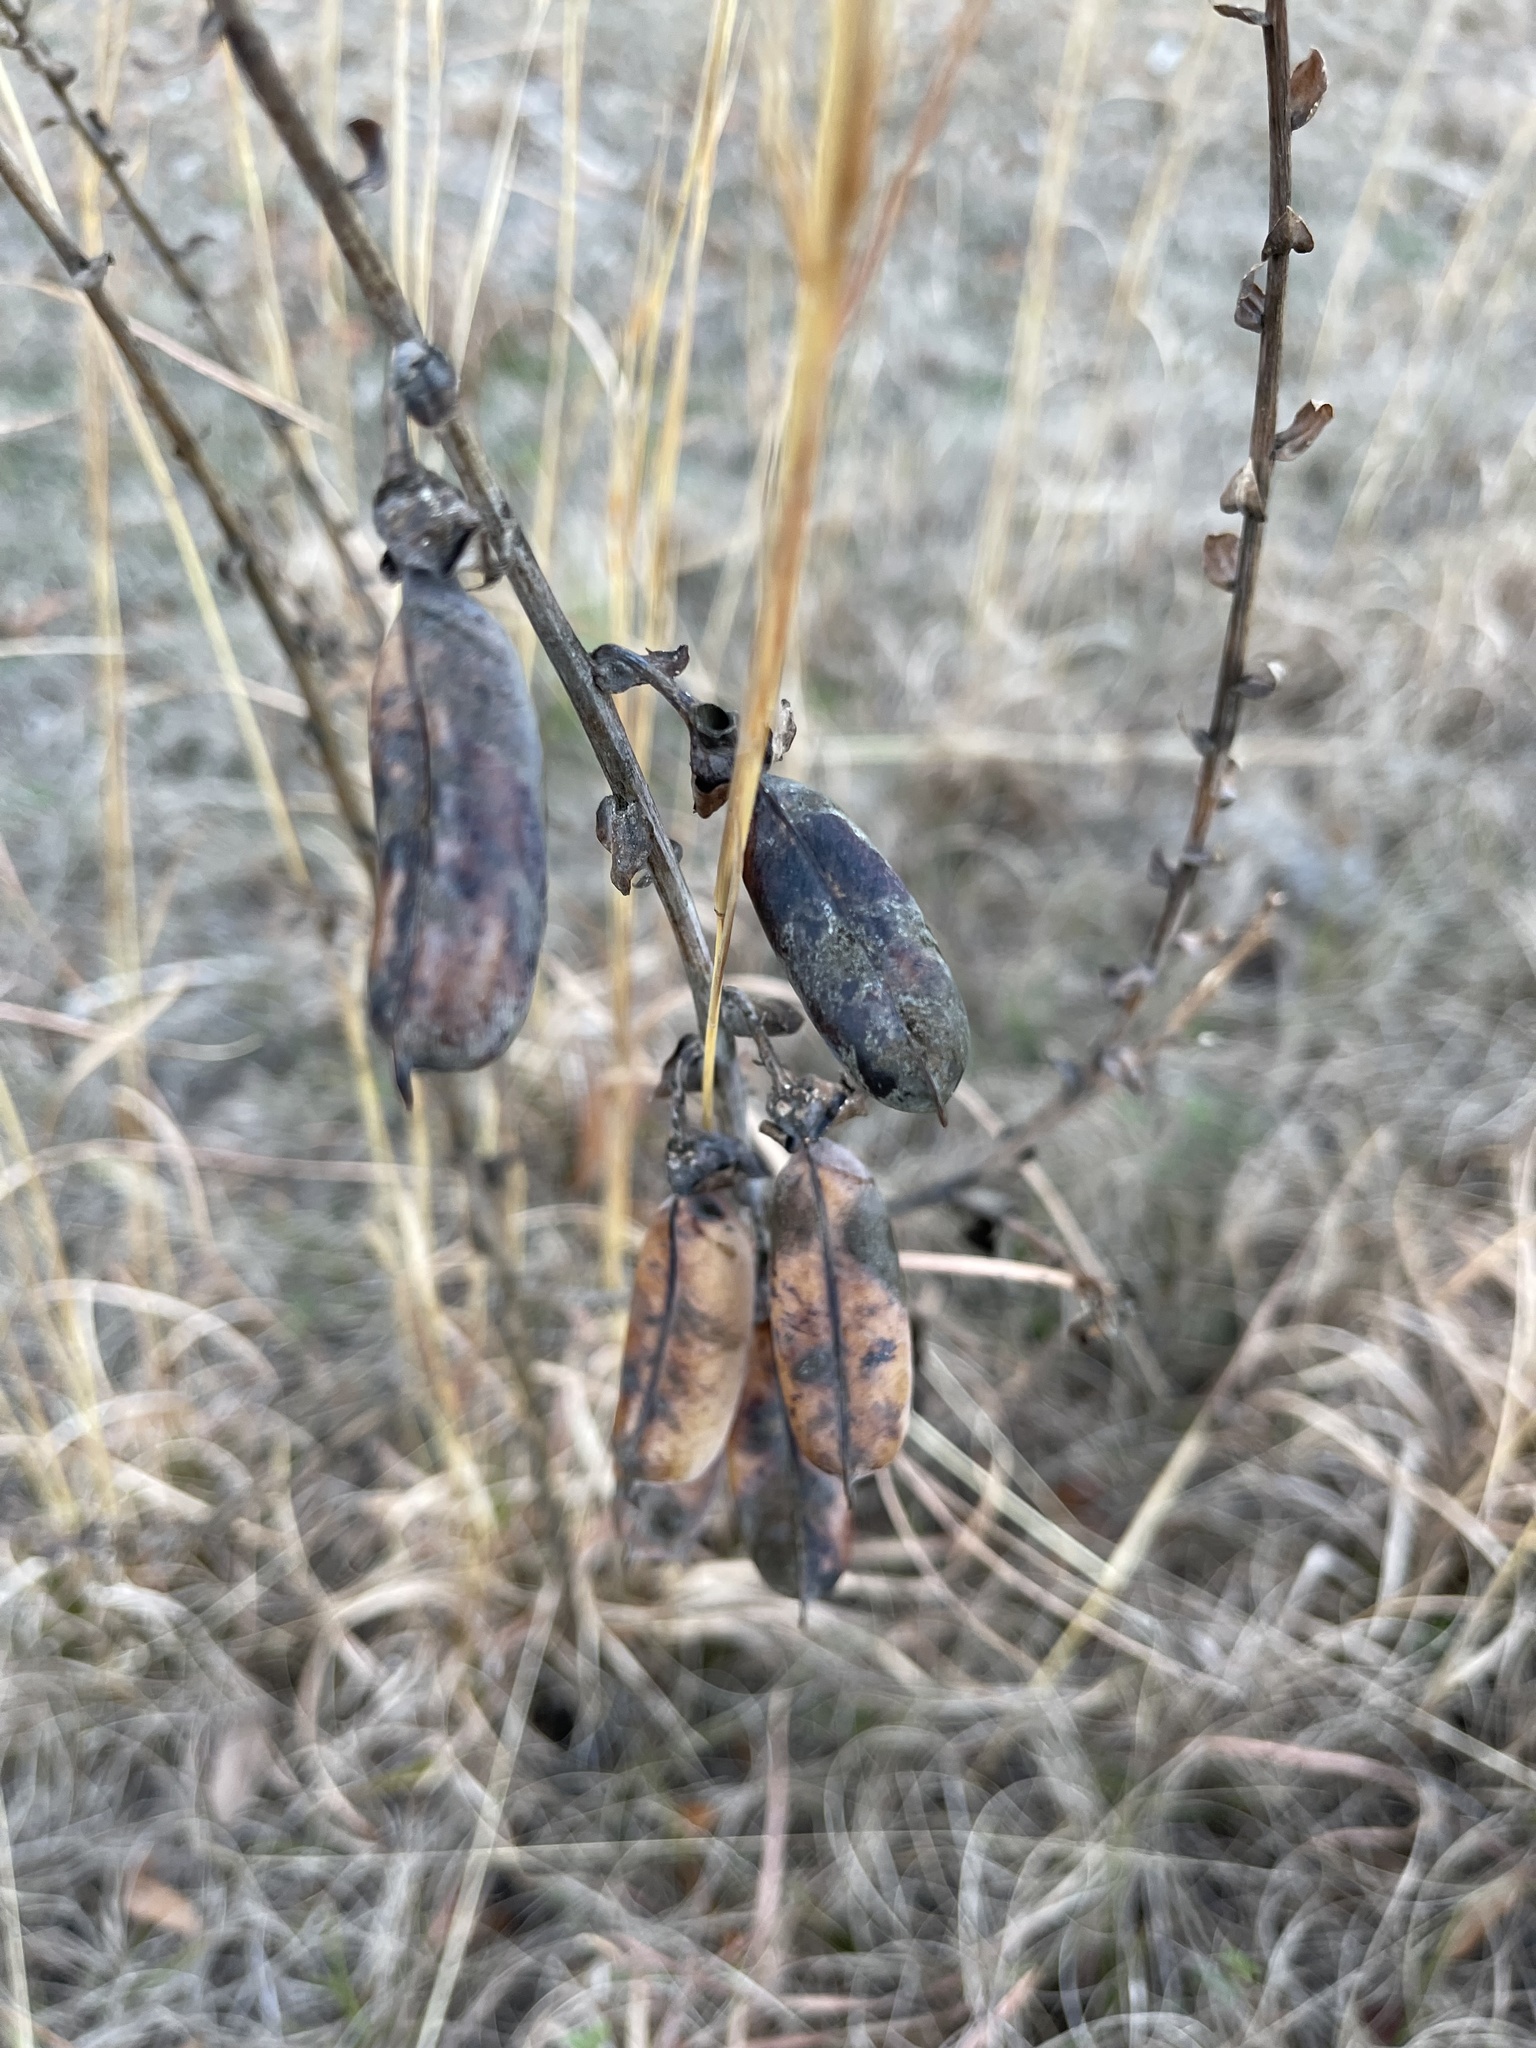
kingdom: Plantae
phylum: Tracheophyta
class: Magnoliopsida
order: Fabales
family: Fabaceae
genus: Crotalaria
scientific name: Crotalaria spectabilis
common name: Showy rattlebox
